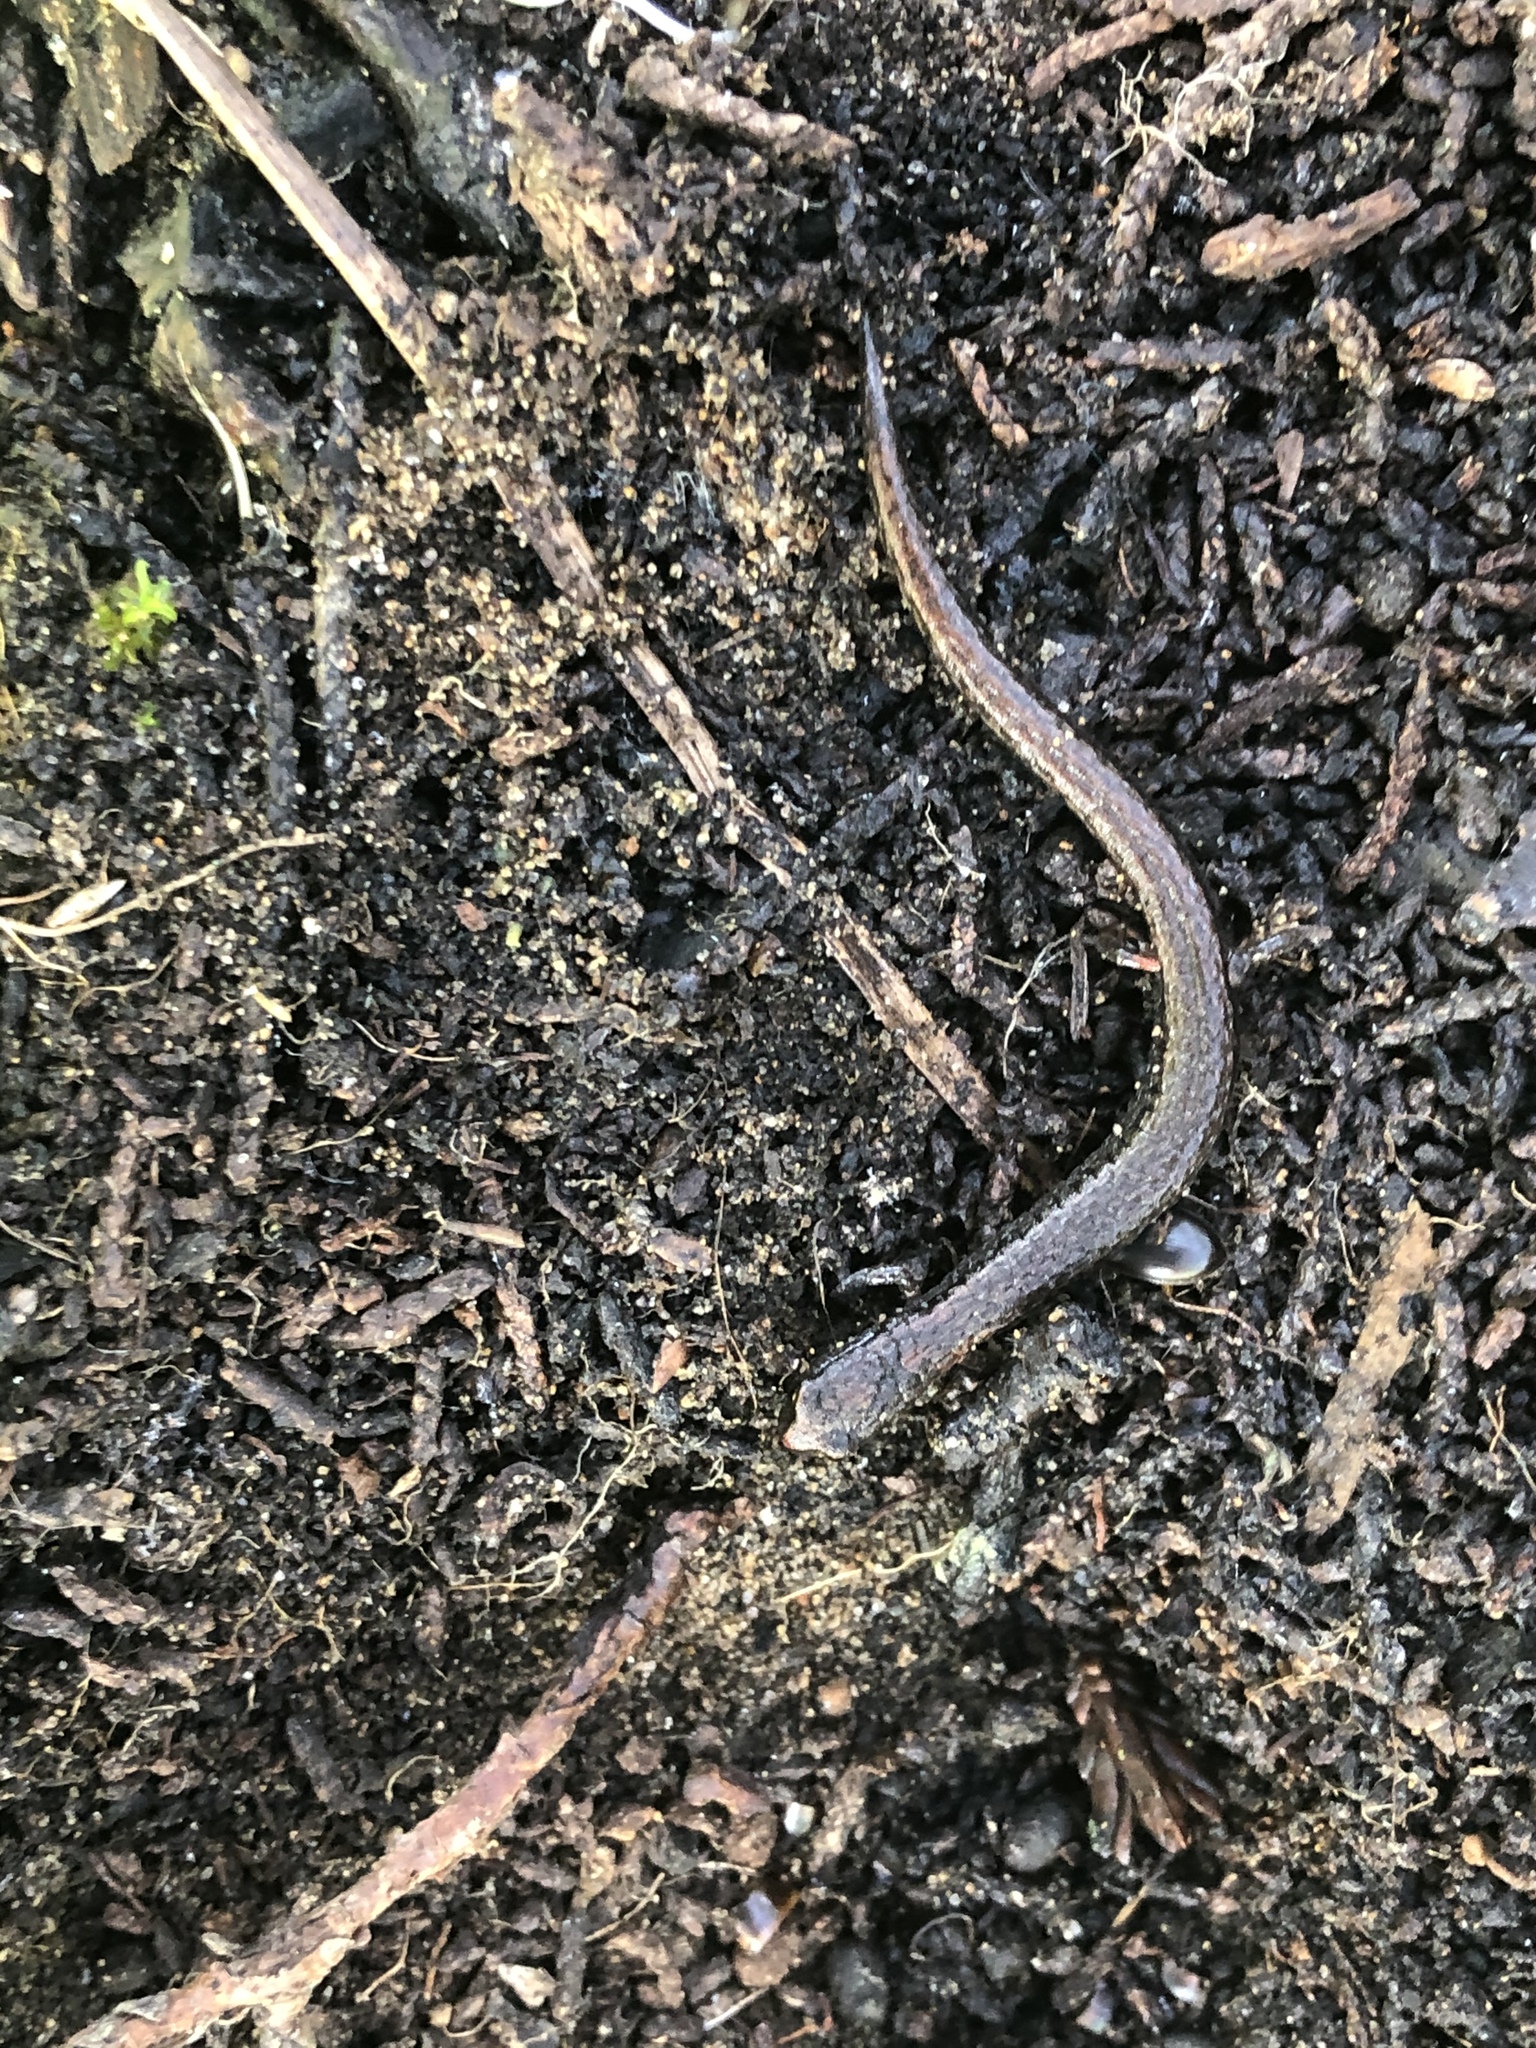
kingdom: Animalia
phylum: Chordata
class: Amphibia
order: Caudata
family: Plethodontidae
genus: Batrachoseps
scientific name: Batrachoseps attenuatus
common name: California slender salamander
